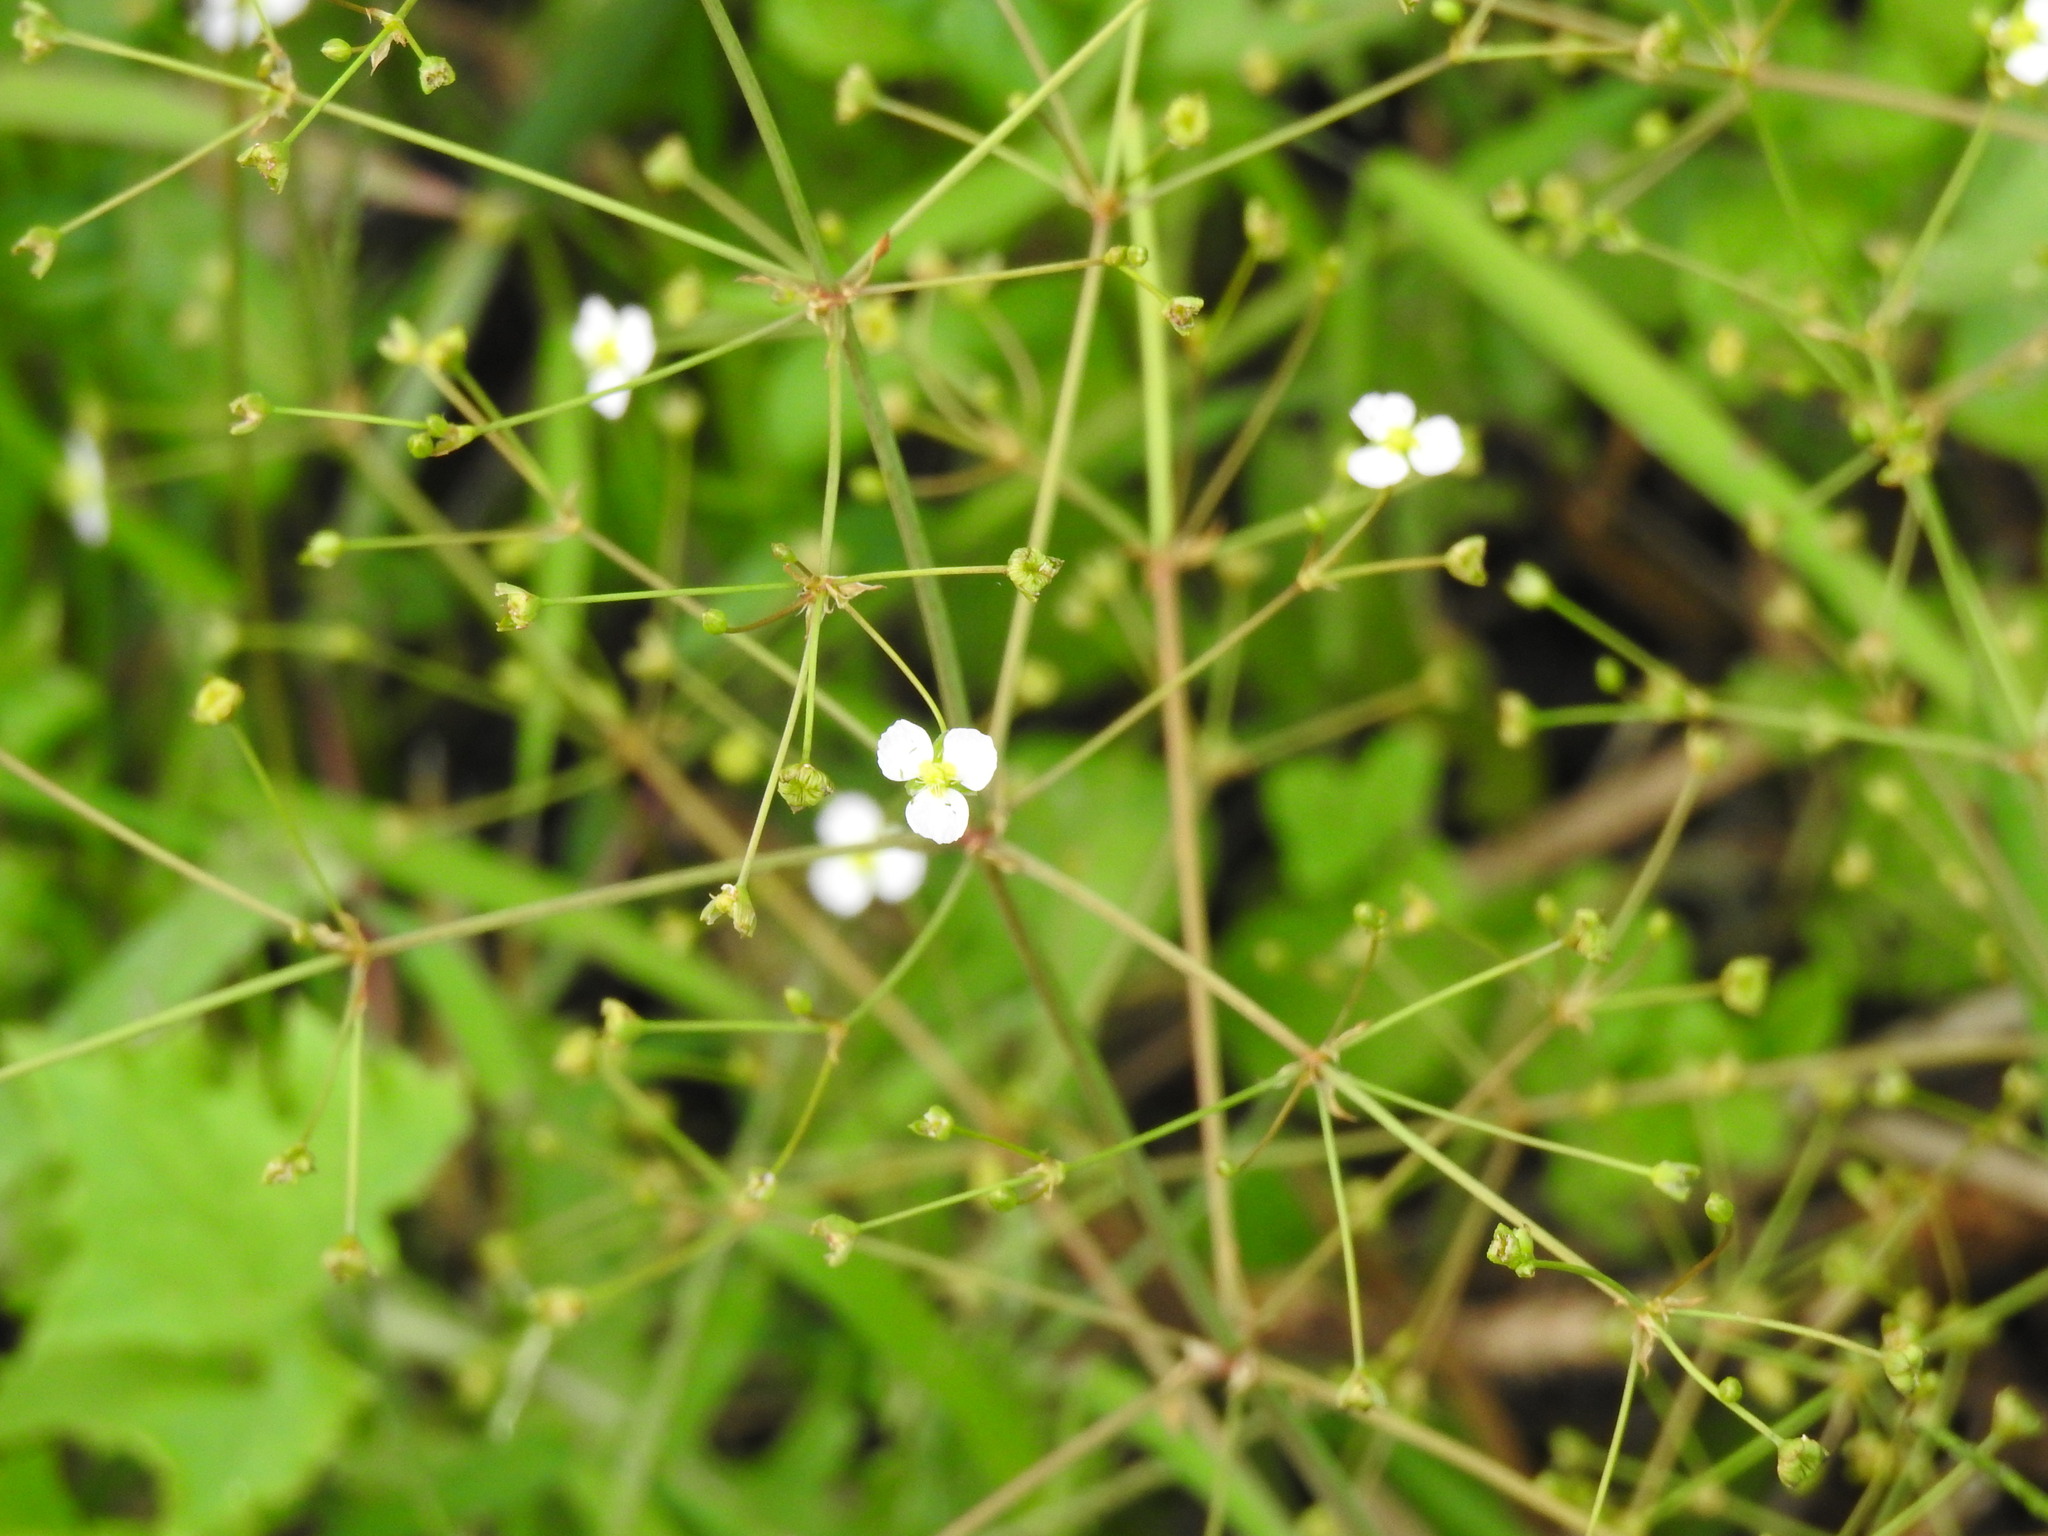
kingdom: Plantae
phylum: Tracheophyta
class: Liliopsida
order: Alismatales
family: Alismataceae
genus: Alisma
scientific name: Alisma plantago-aquatica
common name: Water-plantain
